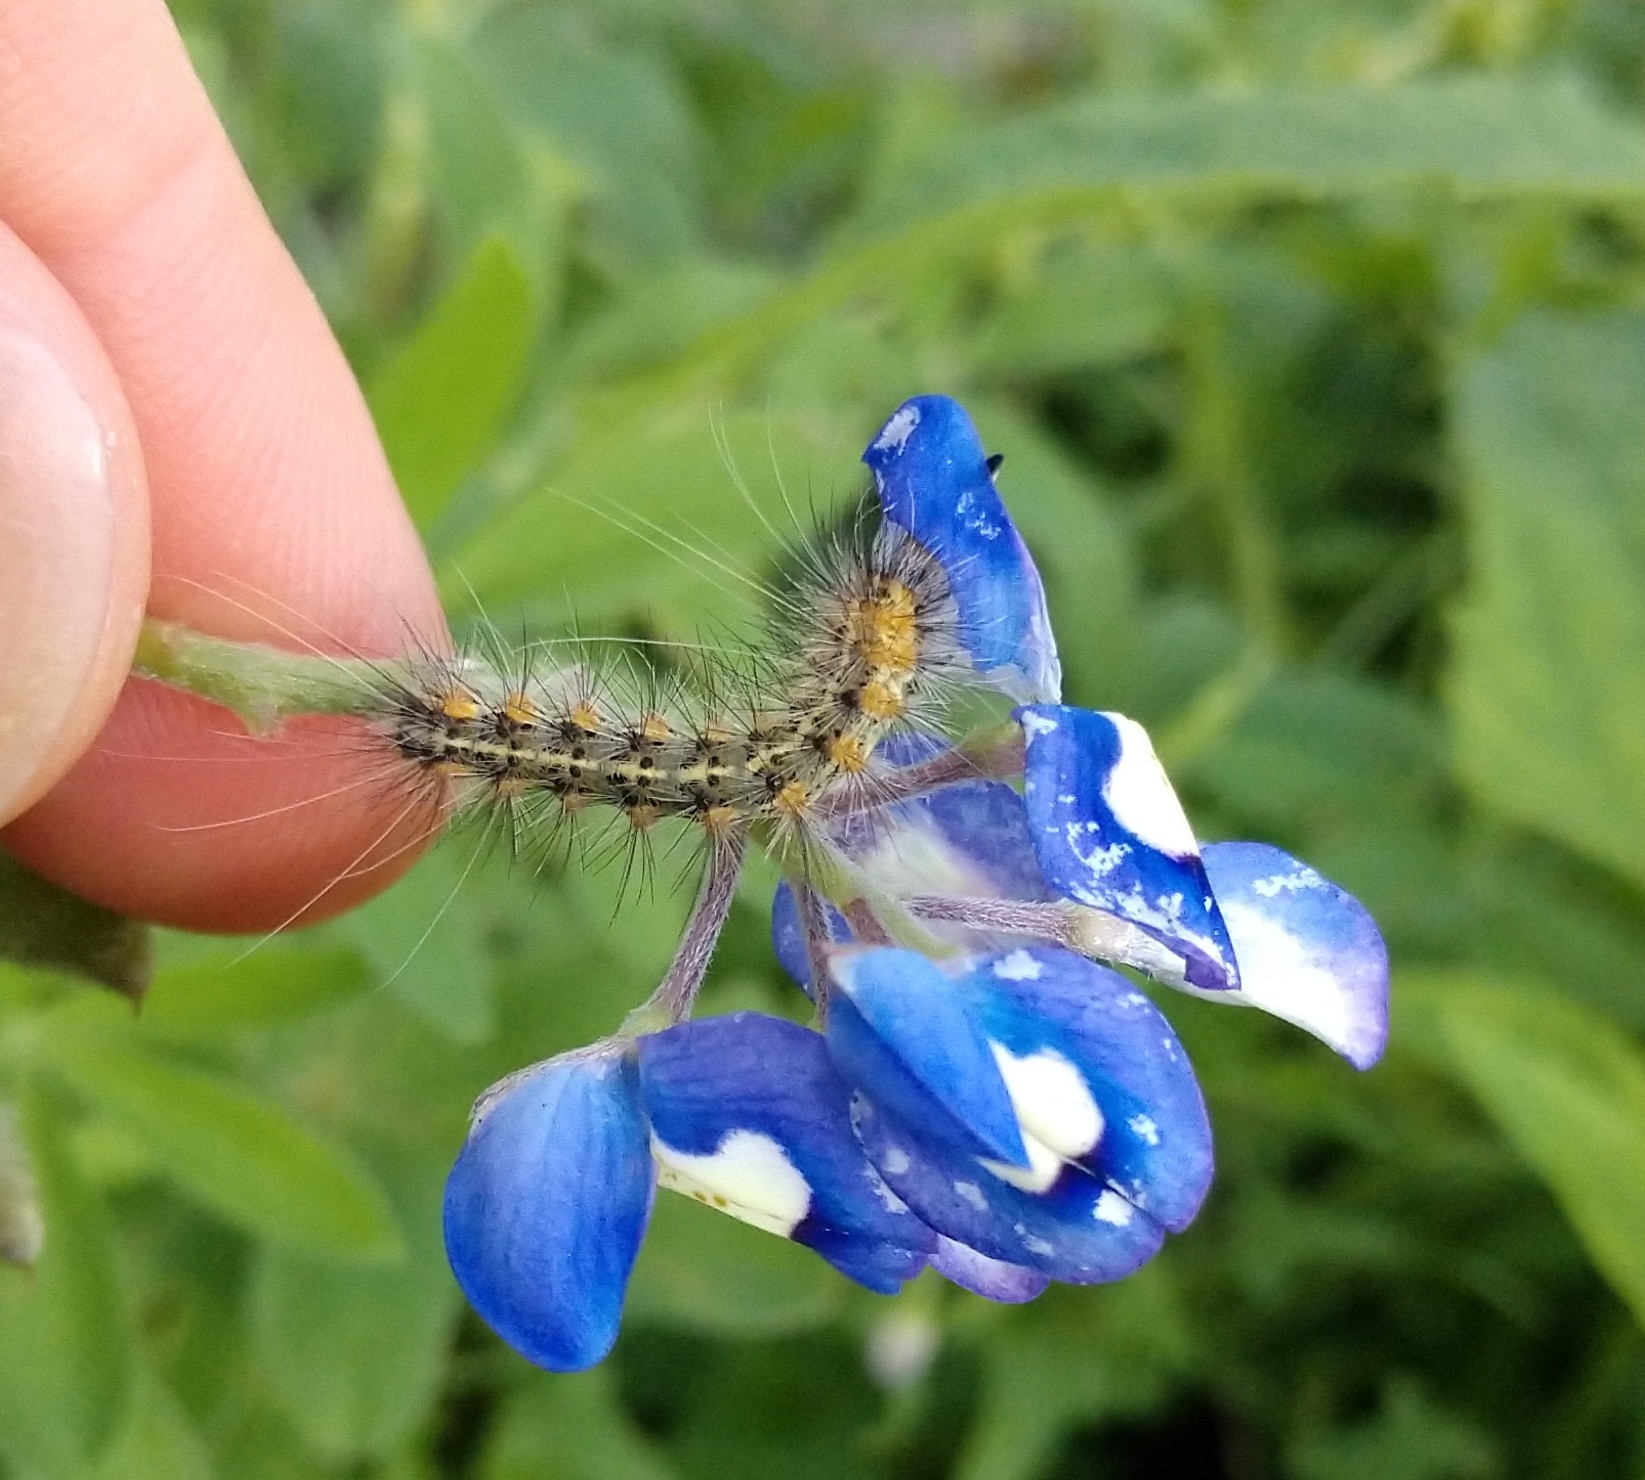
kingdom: Animalia
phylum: Arthropoda
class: Insecta
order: Lepidoptera
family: Erebidae
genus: Estigmene
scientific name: Estigmene acrea
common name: Salt marsh moth
